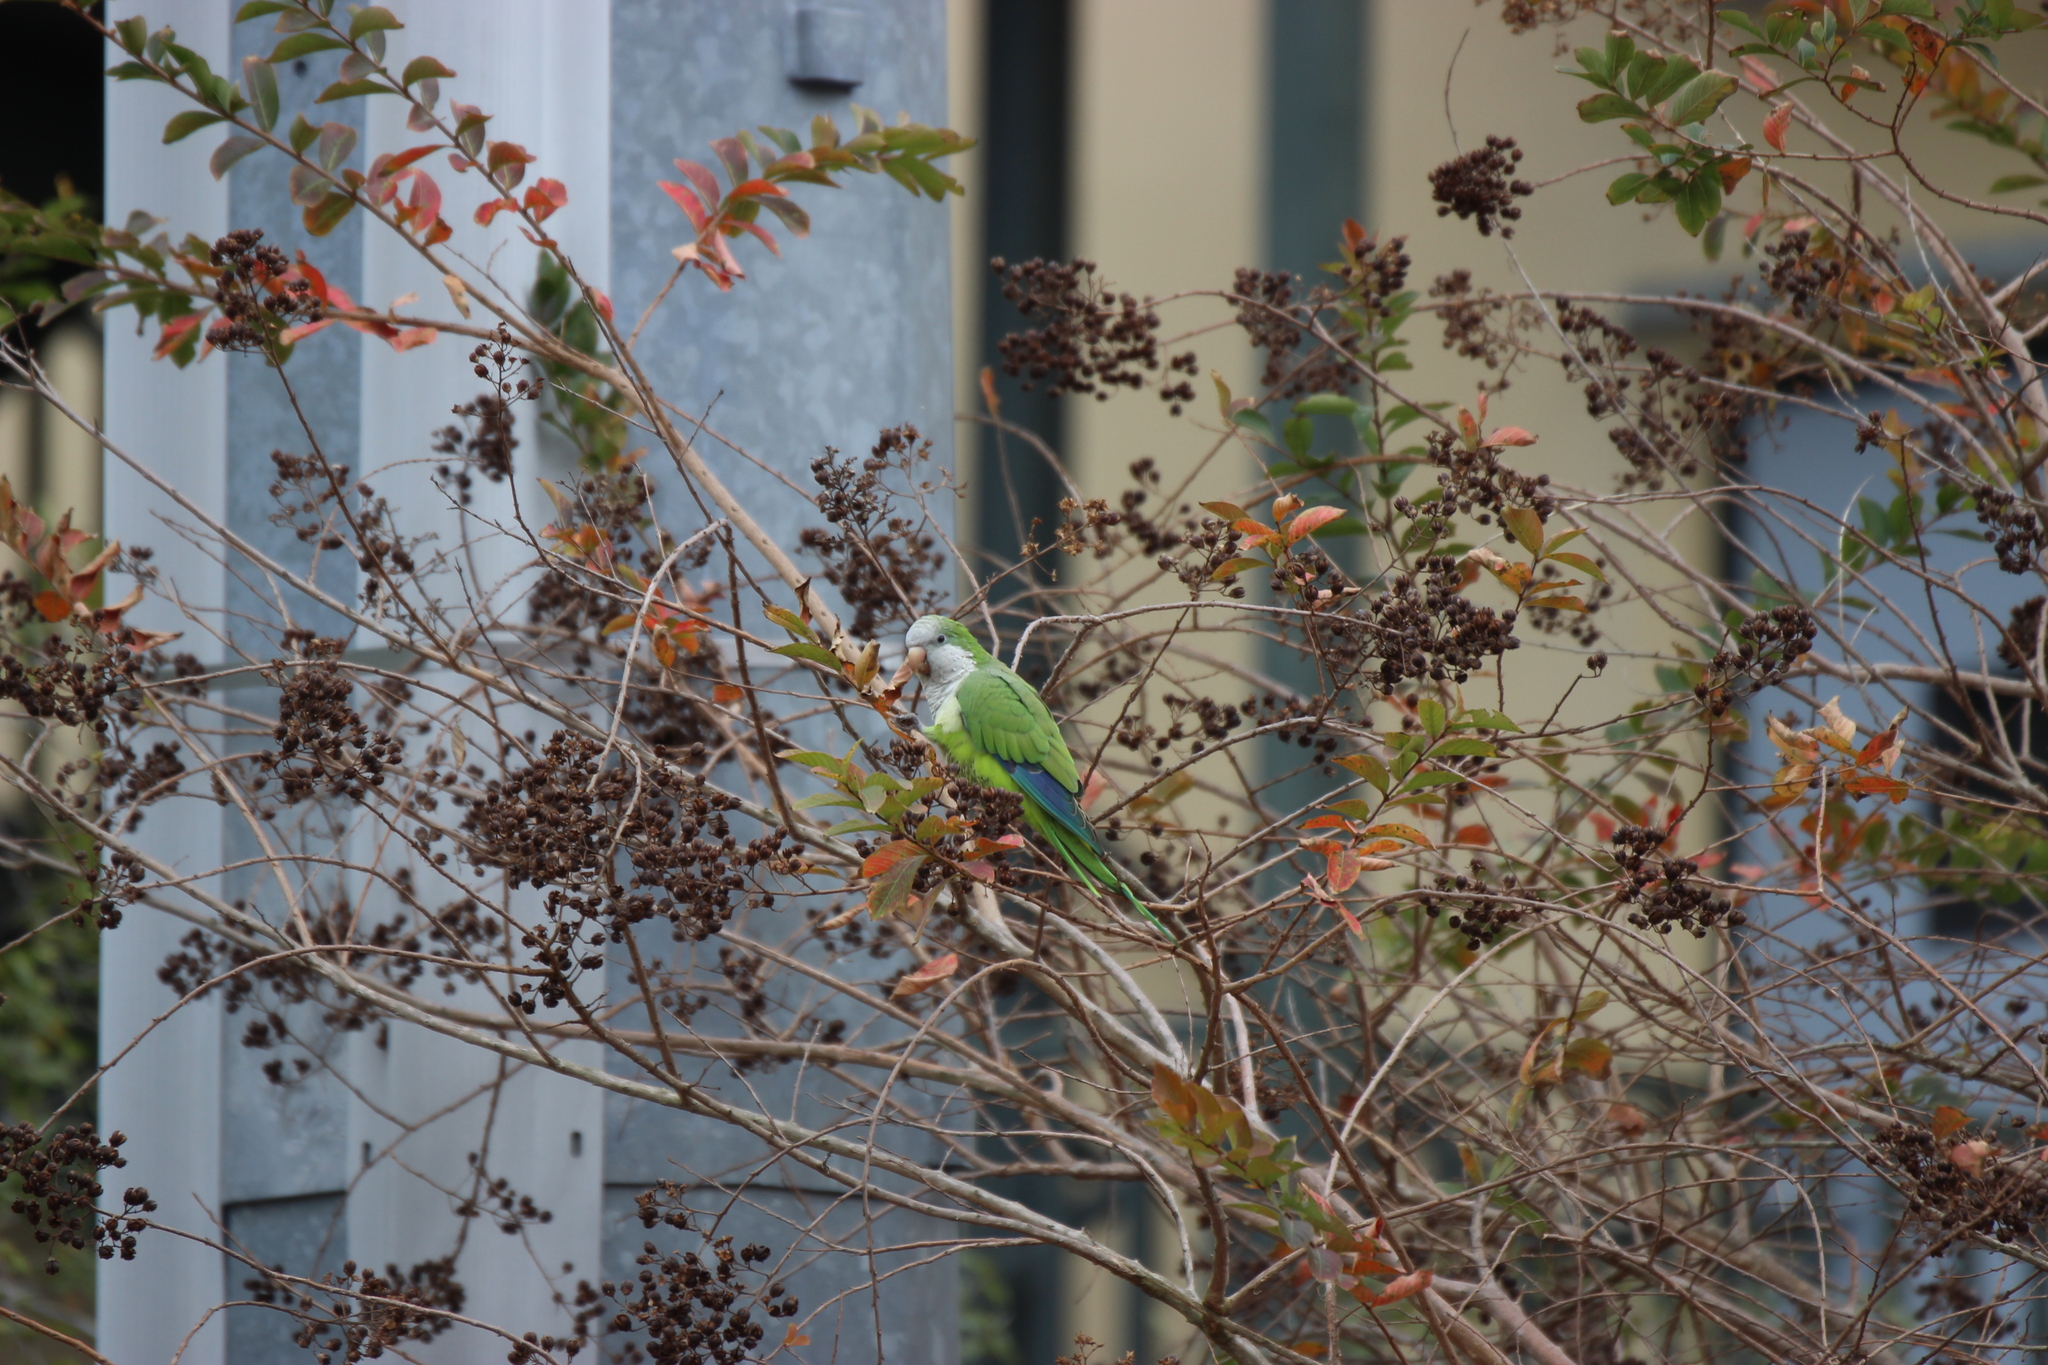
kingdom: Animalia
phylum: Chordata
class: Aves
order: Psittaciformes
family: Psittacidae
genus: Myiopsitta
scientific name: Myiopsitta monachus
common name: Monk parakeet
